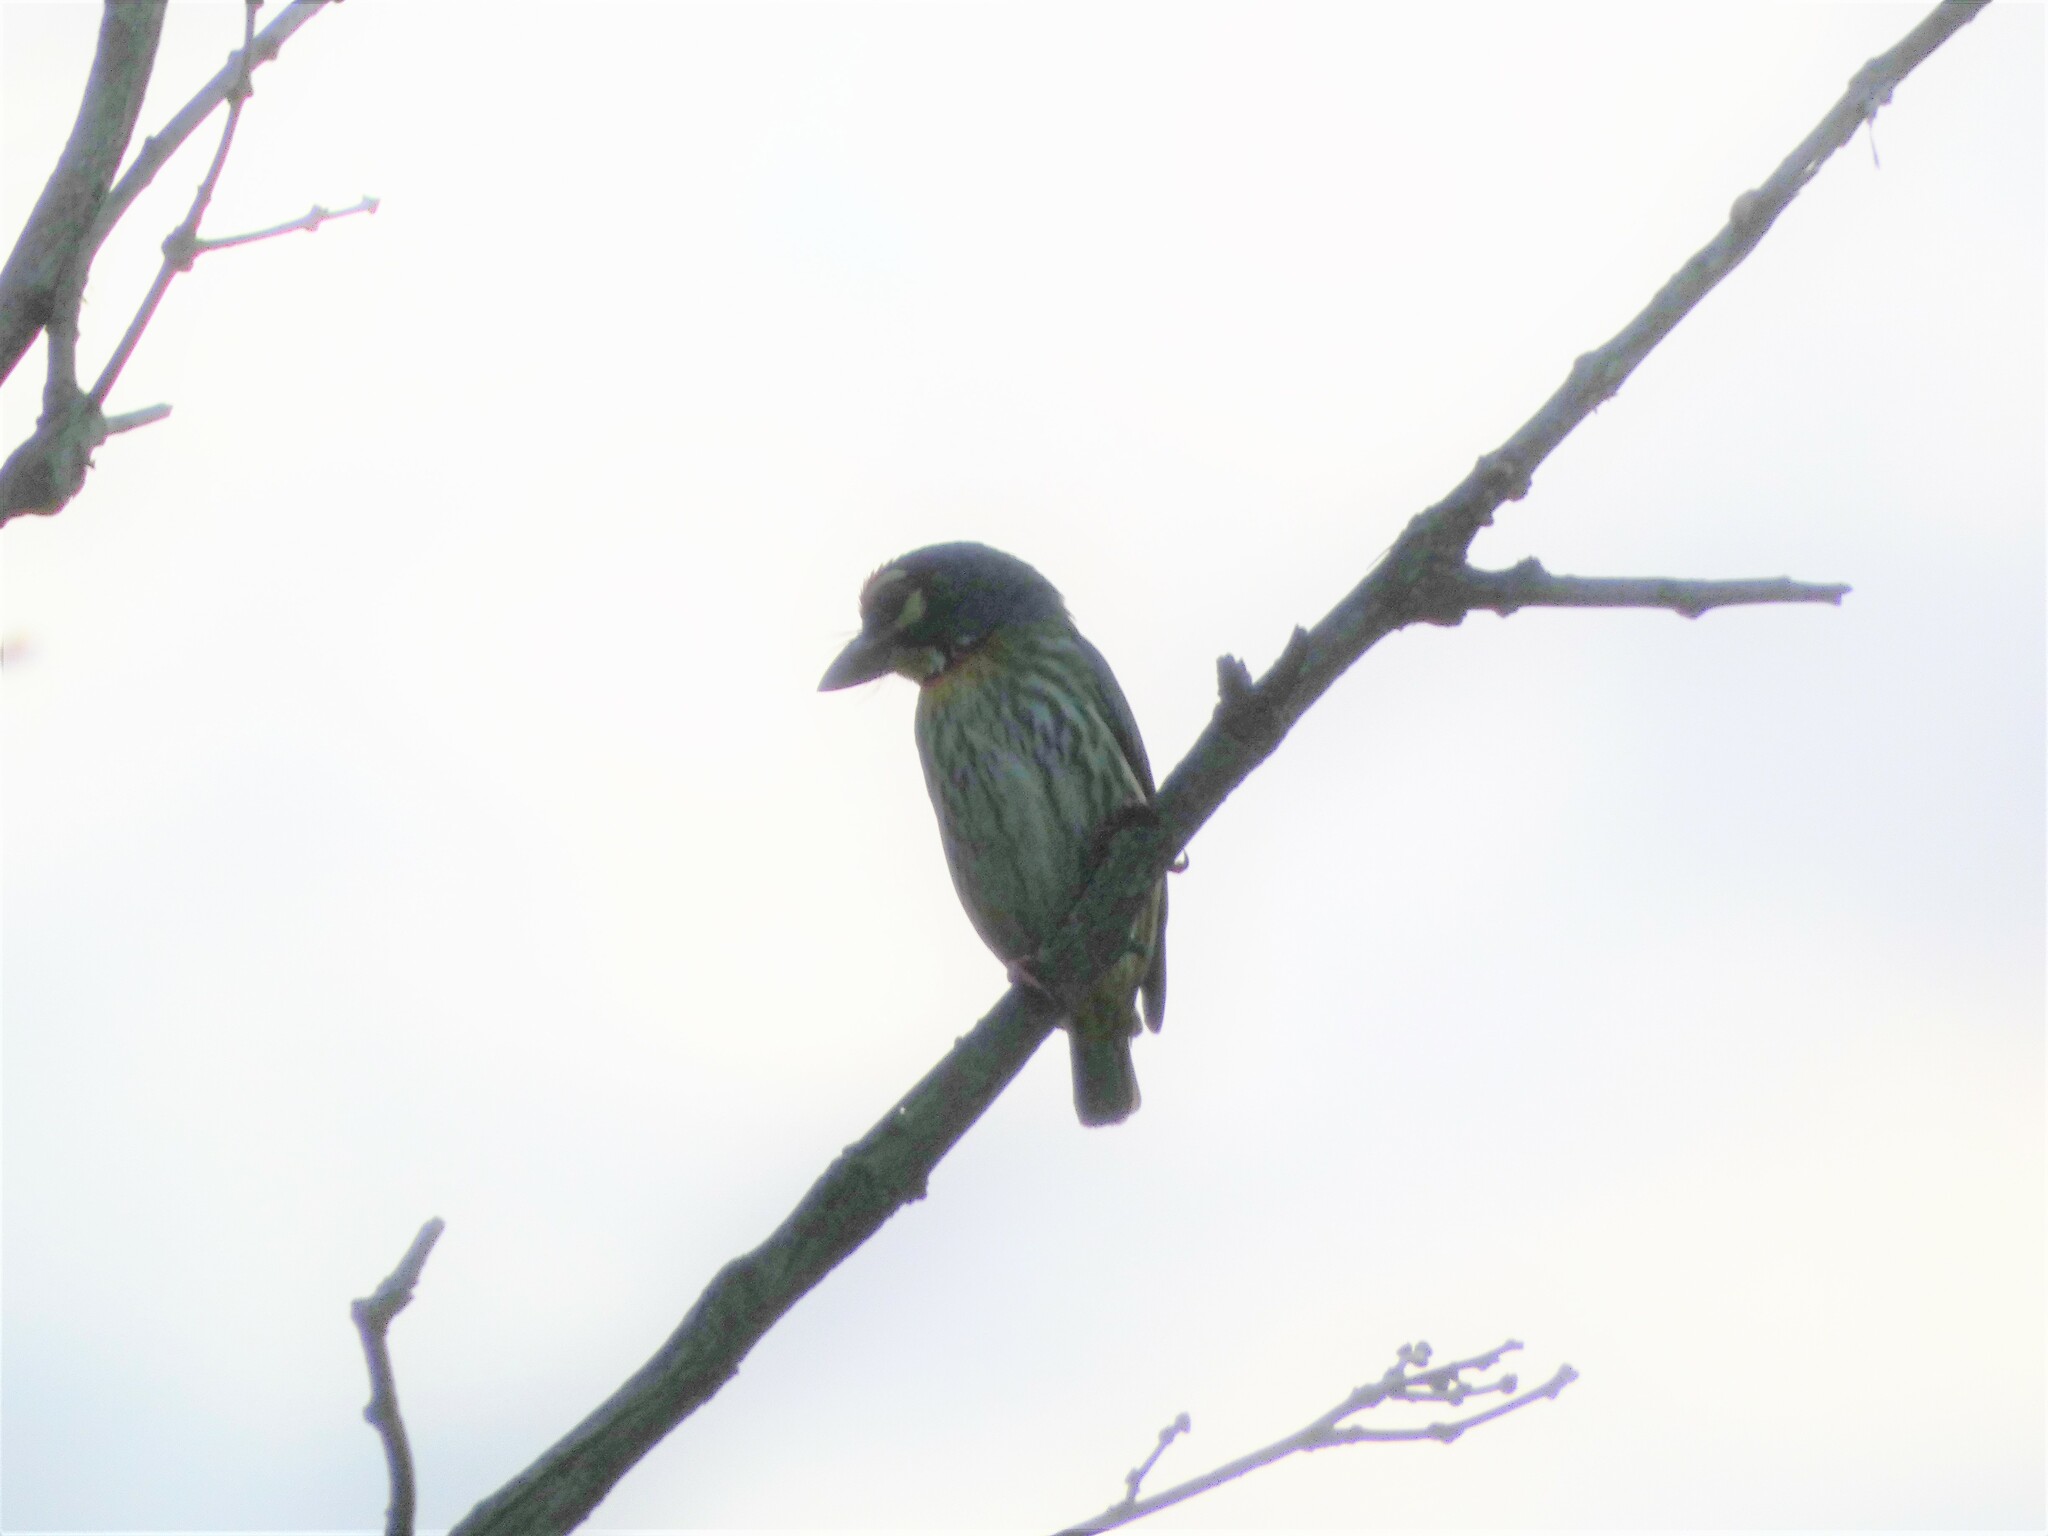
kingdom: Animalia
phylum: Chordata
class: Aves
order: Piciformes
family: Megalaimidae
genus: Psilopogon
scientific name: Psilopogon haemacephalus
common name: Coppersmith barbet
